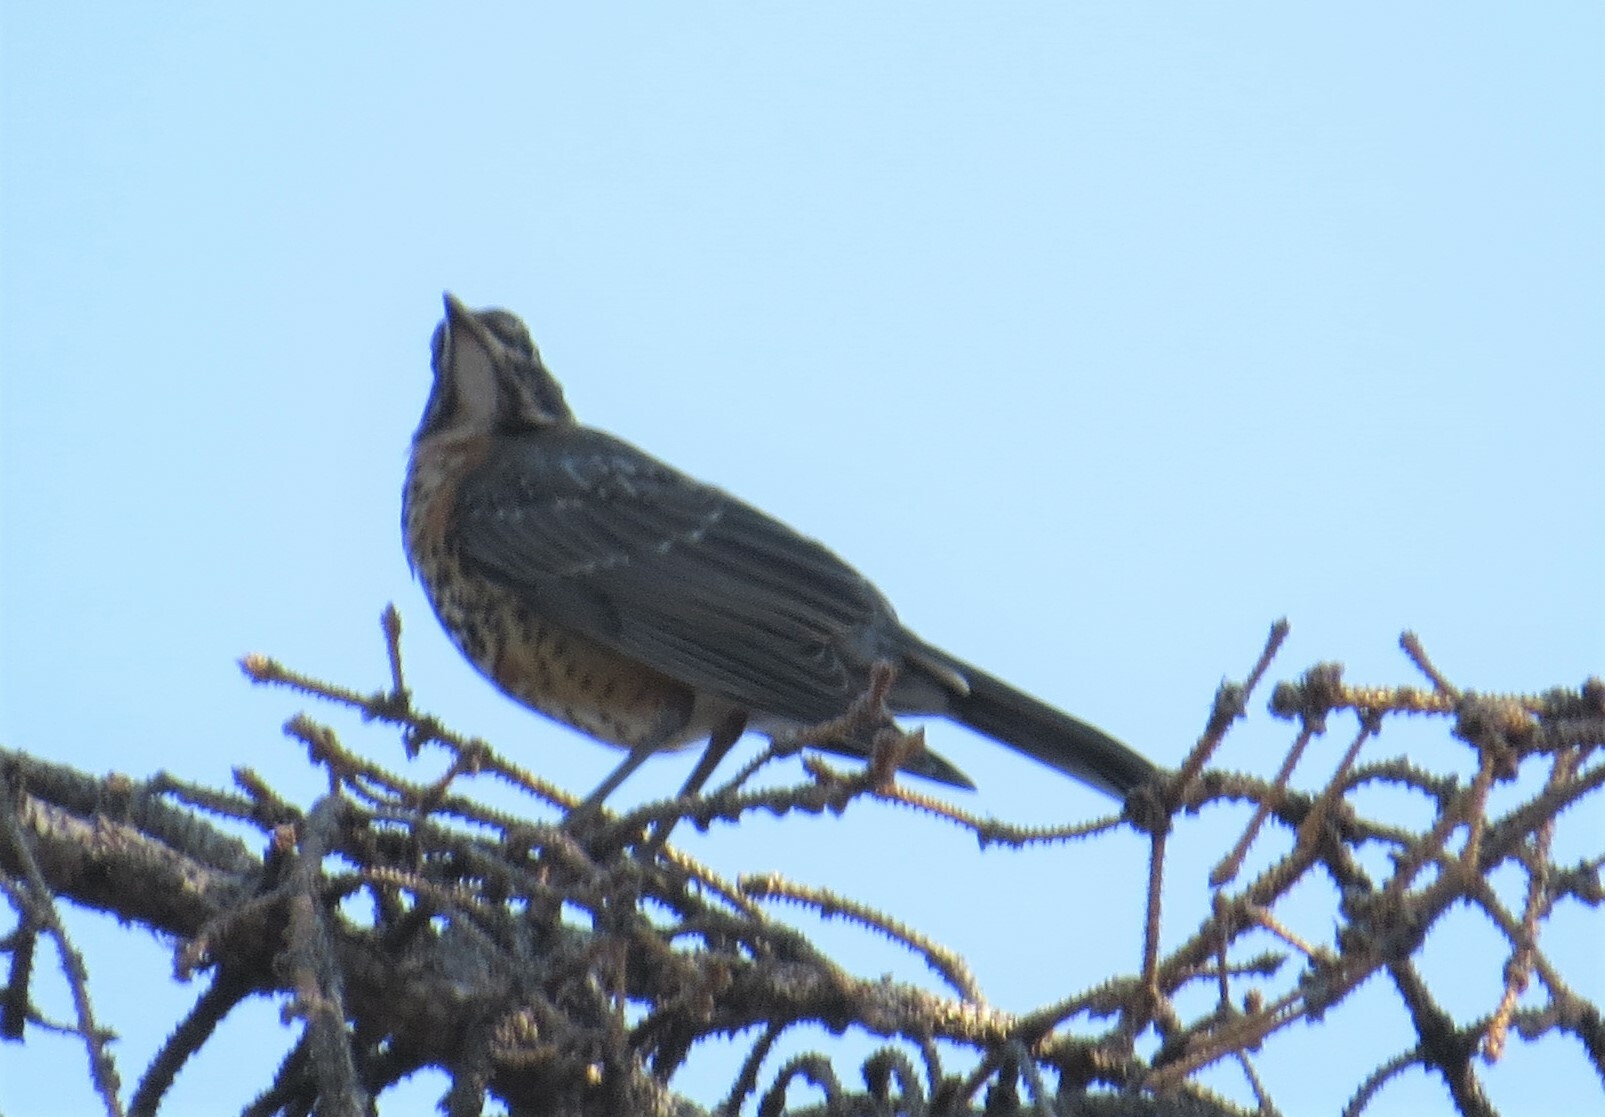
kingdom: Animalia
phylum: Chordata
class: Aves
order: Passeriformes
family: Turdidae
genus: Turdus
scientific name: Turdus migratorius
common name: American robin
